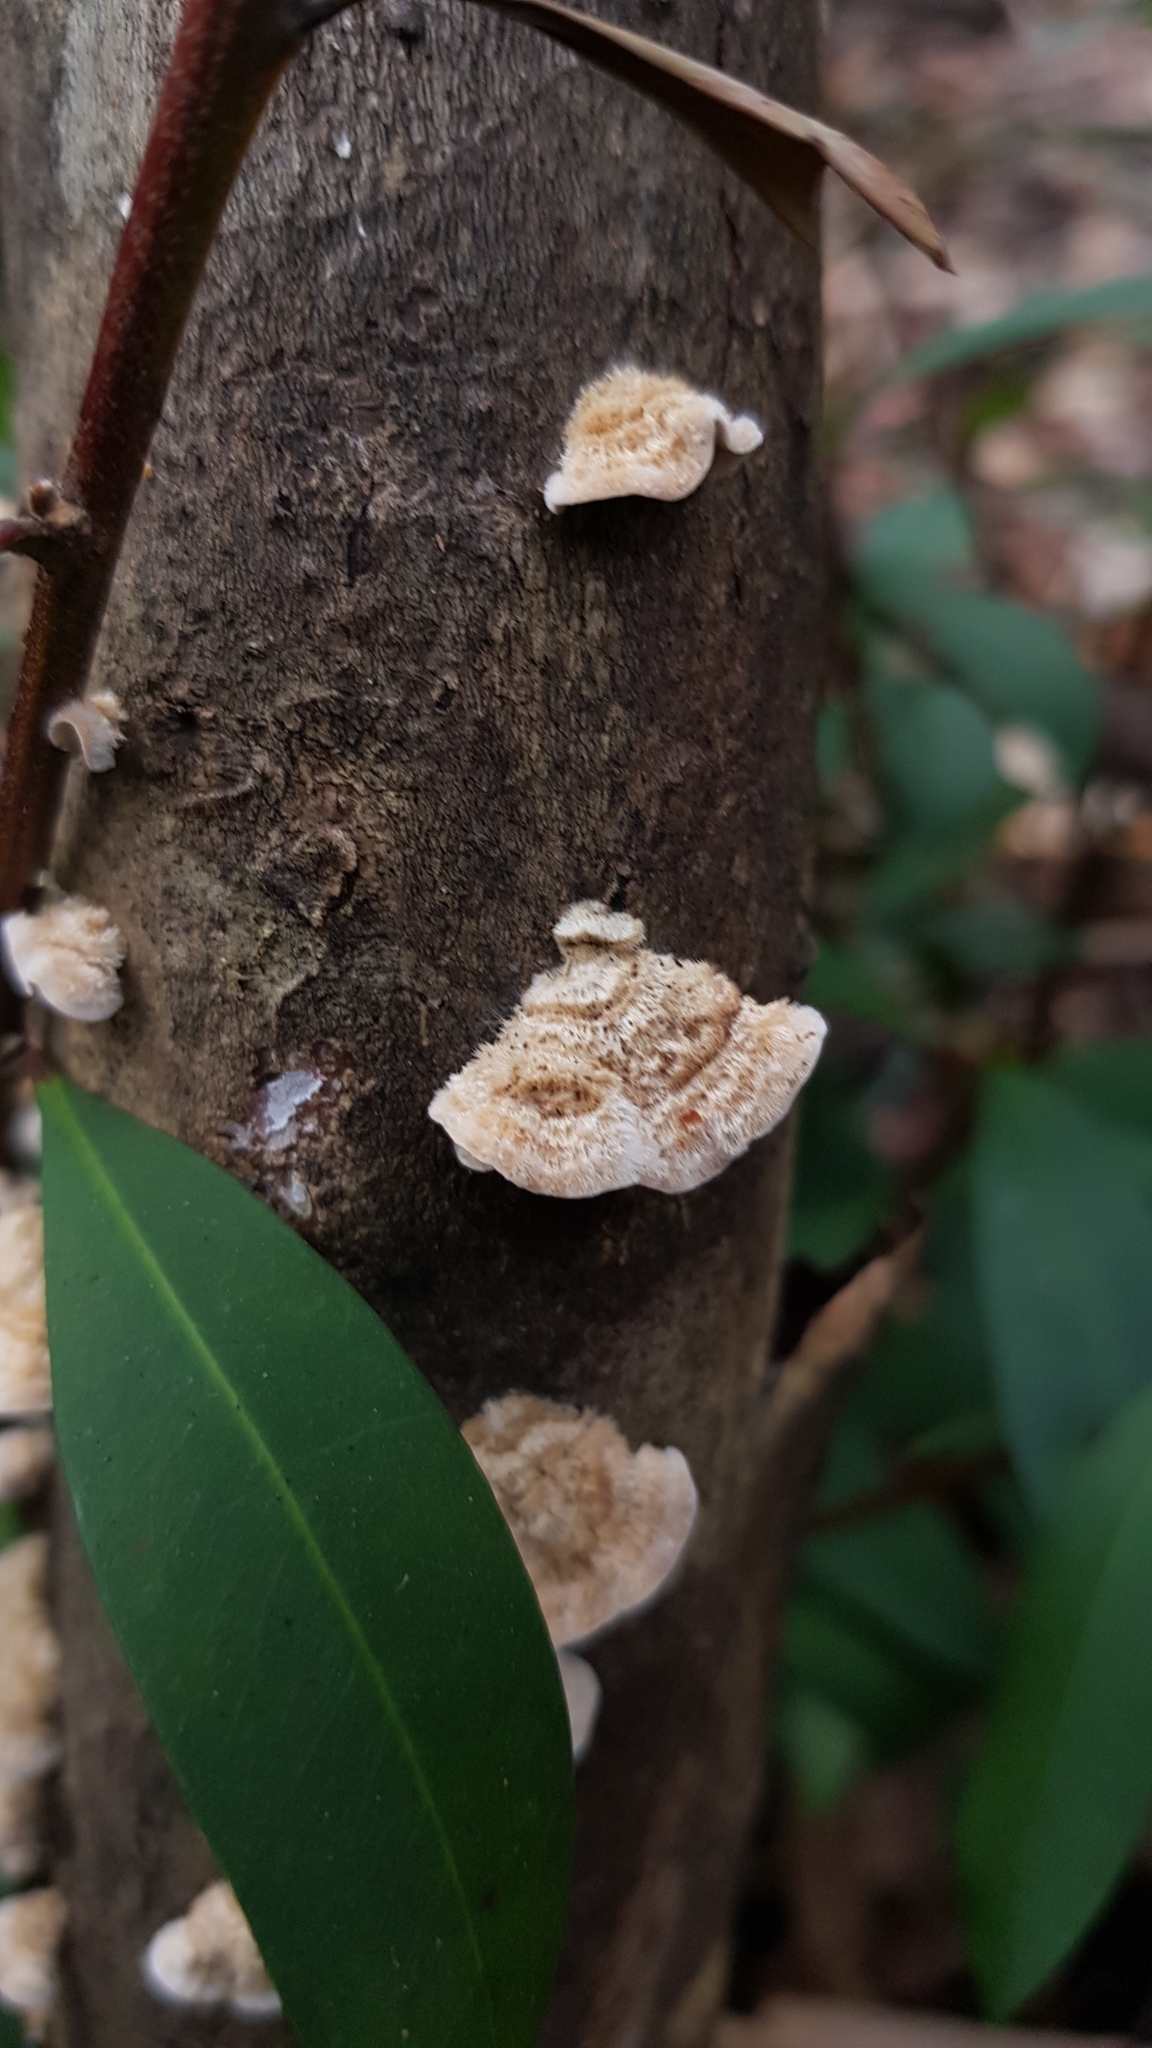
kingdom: Fungi
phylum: Basidiomycota
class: Agaricomycetes
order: Russulales
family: Stereaceae
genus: Stereum
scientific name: Stereum ochraceoflavum
